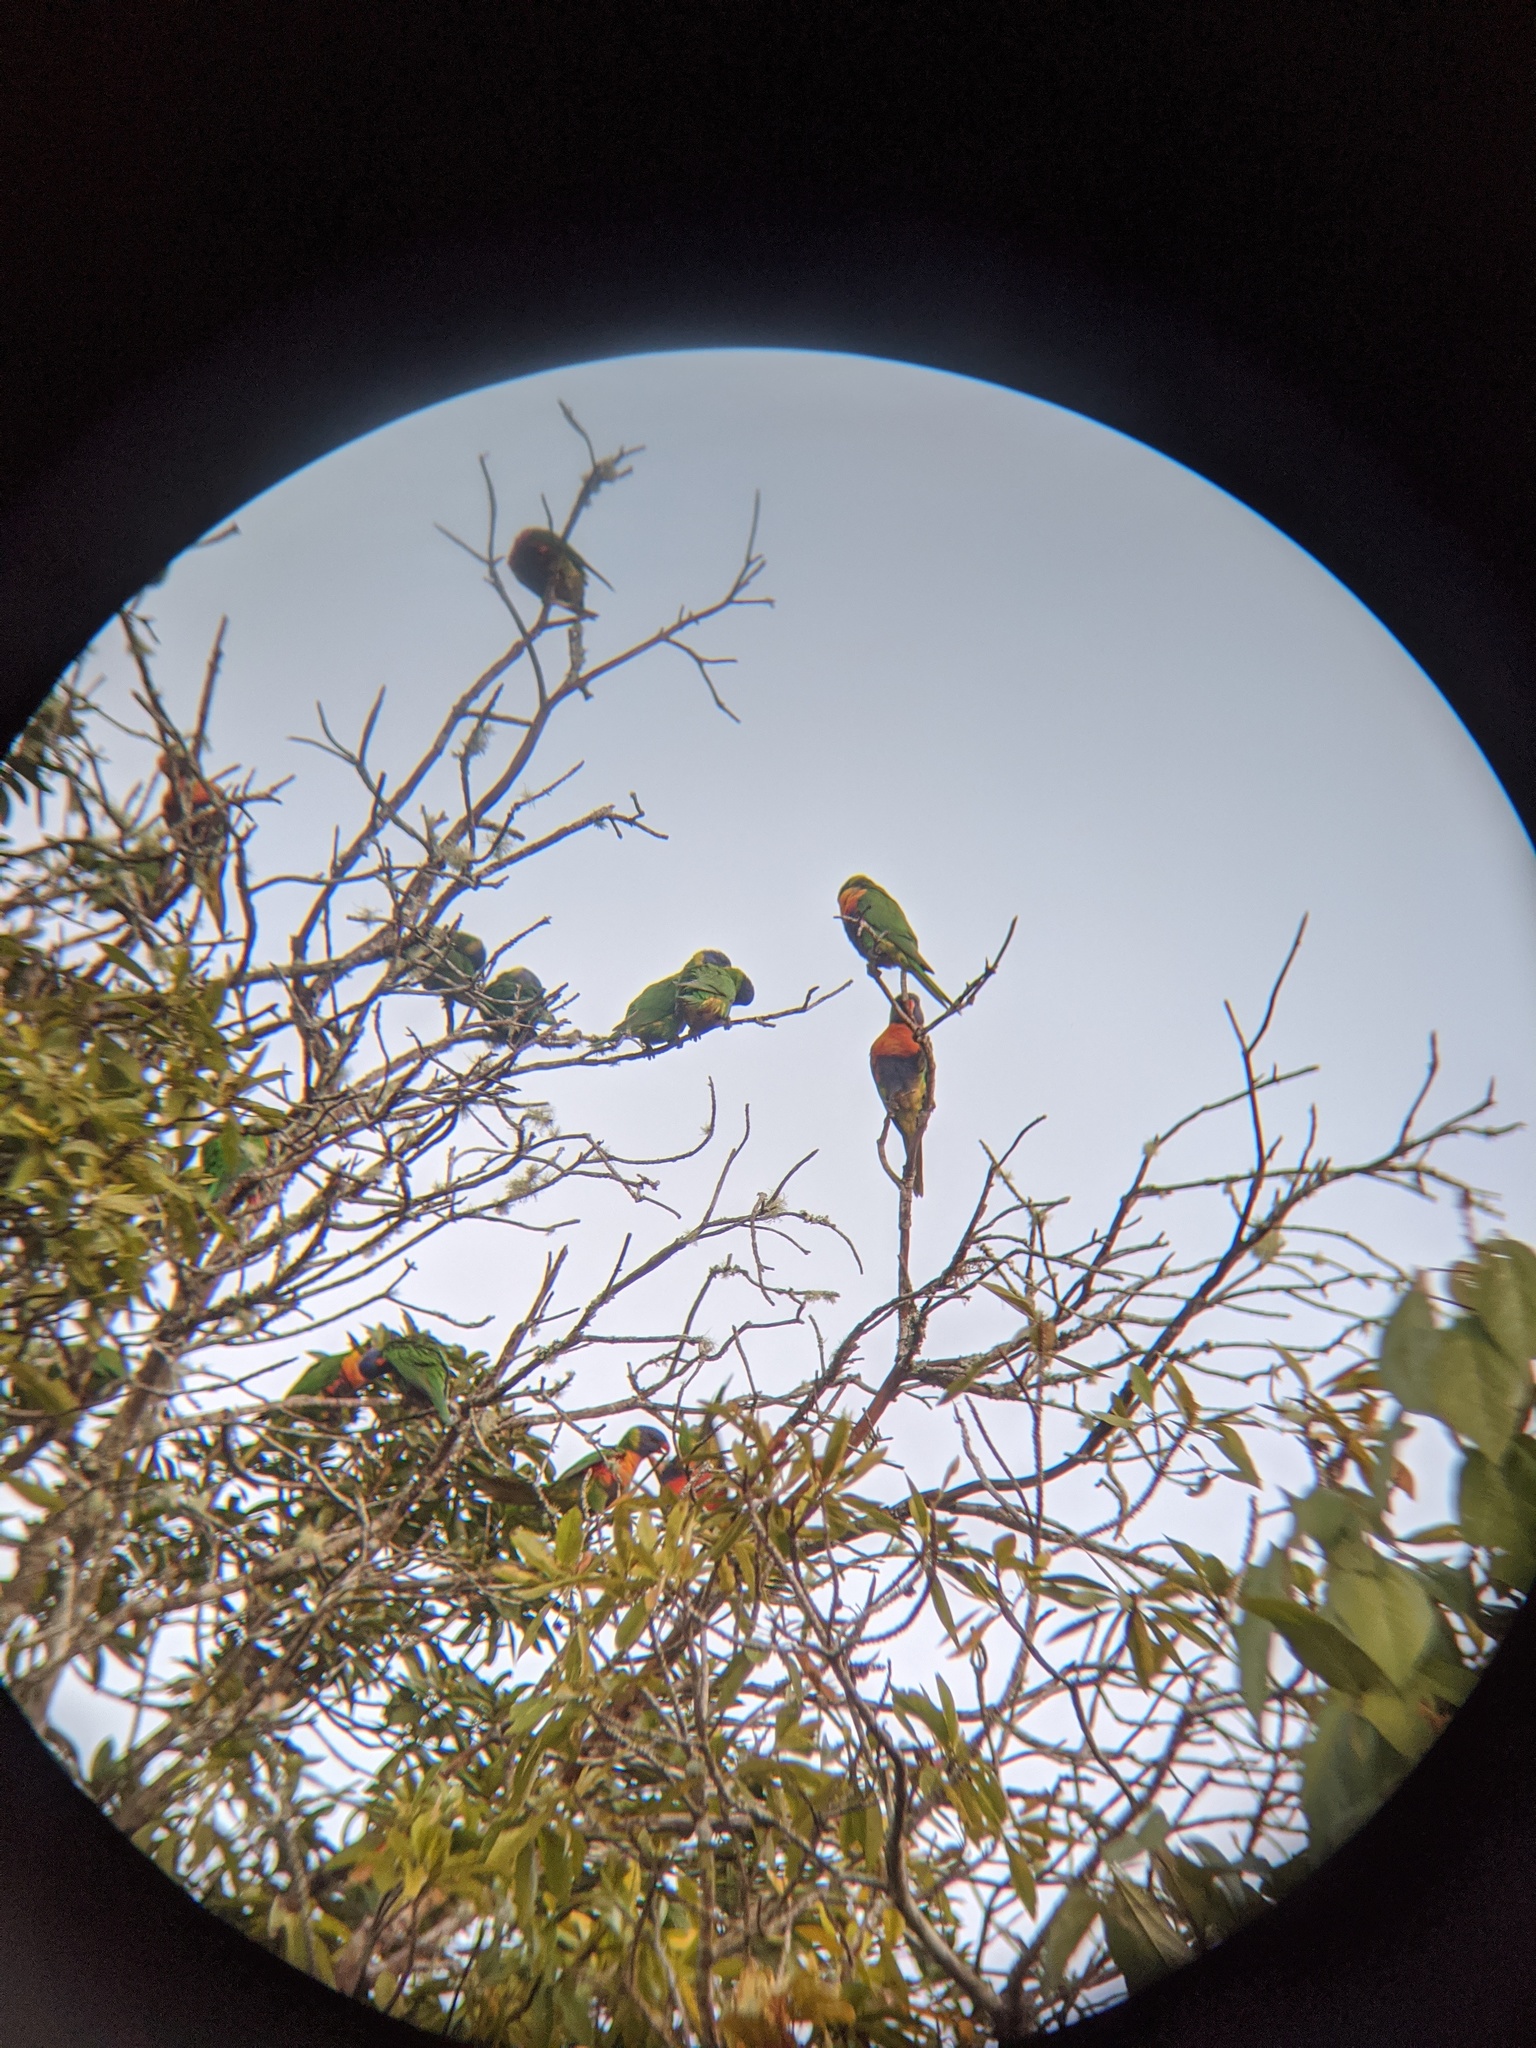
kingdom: Animalia
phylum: Chordata
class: Aves
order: Psittaciformes
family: Psittacidae
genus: Trichoglossus
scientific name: Trichoglossus haematodus
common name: Coconut lorikeet
